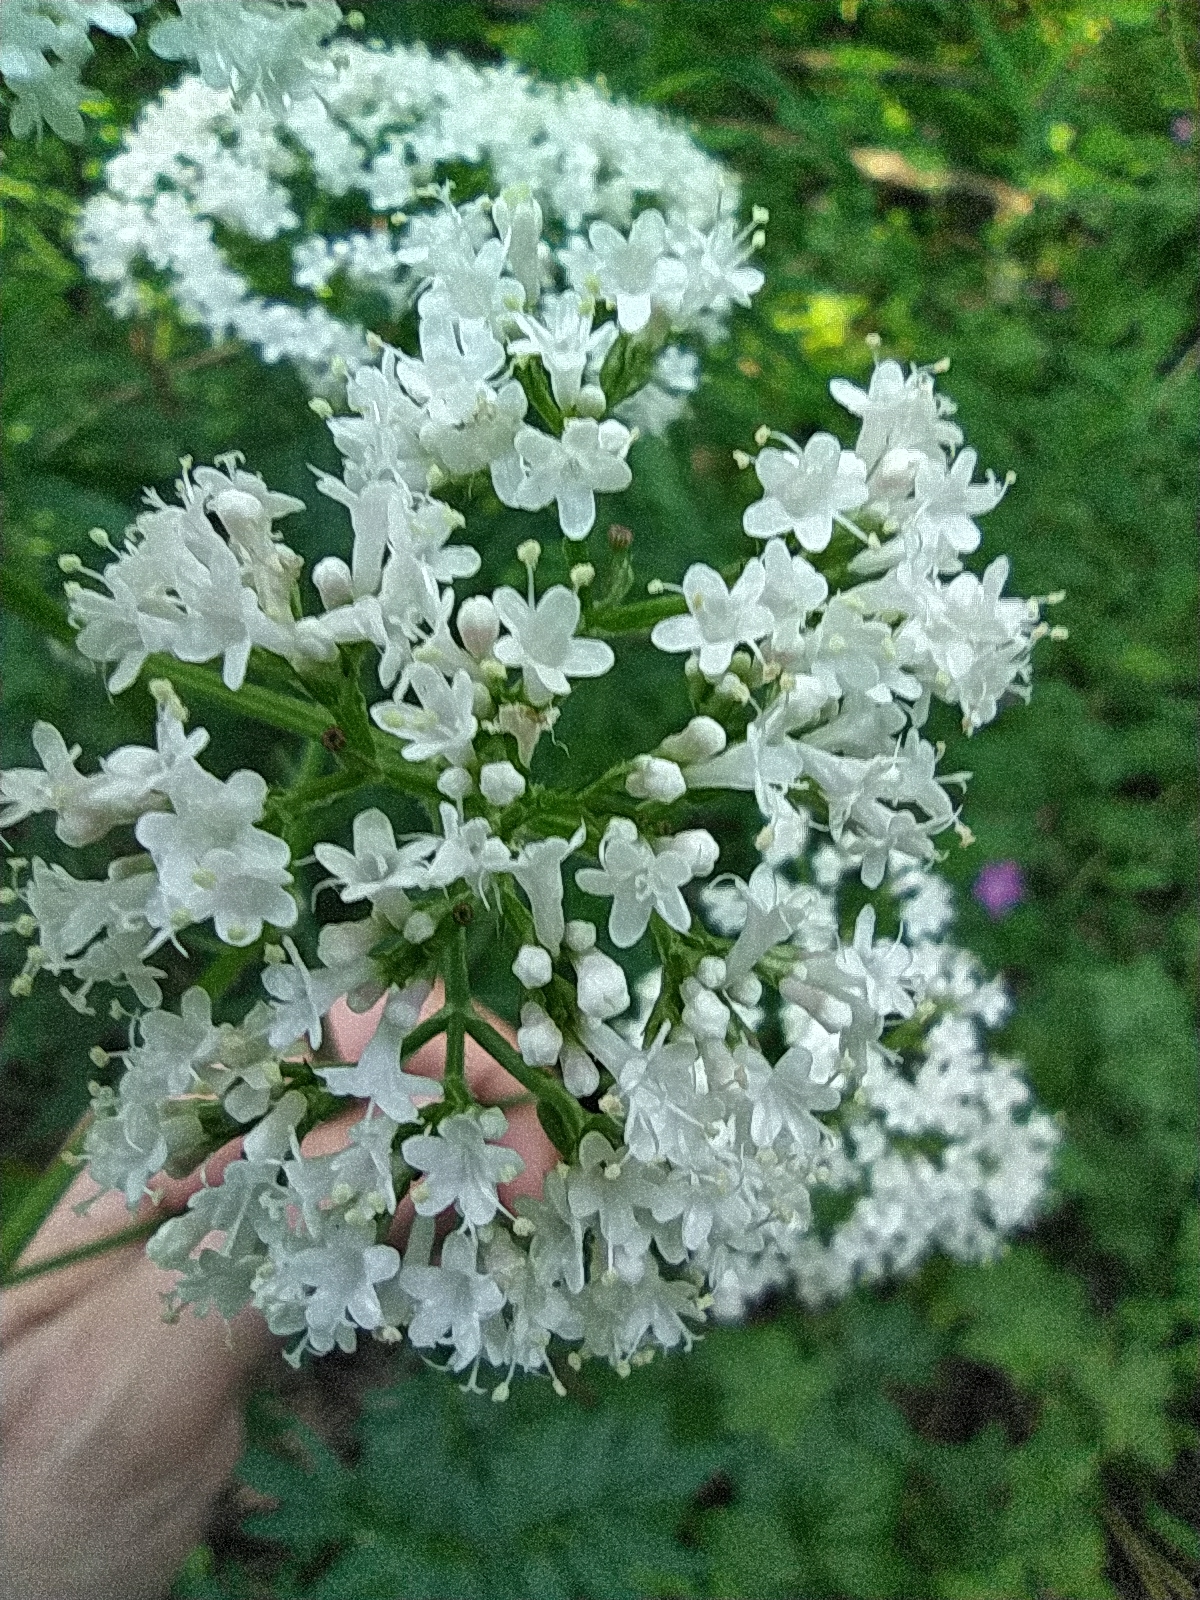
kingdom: Plantae
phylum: Tracheophyta
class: Magnoliopsida
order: Dipsacales
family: Caprifoliaceae
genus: Valeriana
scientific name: Valeriana officinalis
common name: Common valerian
